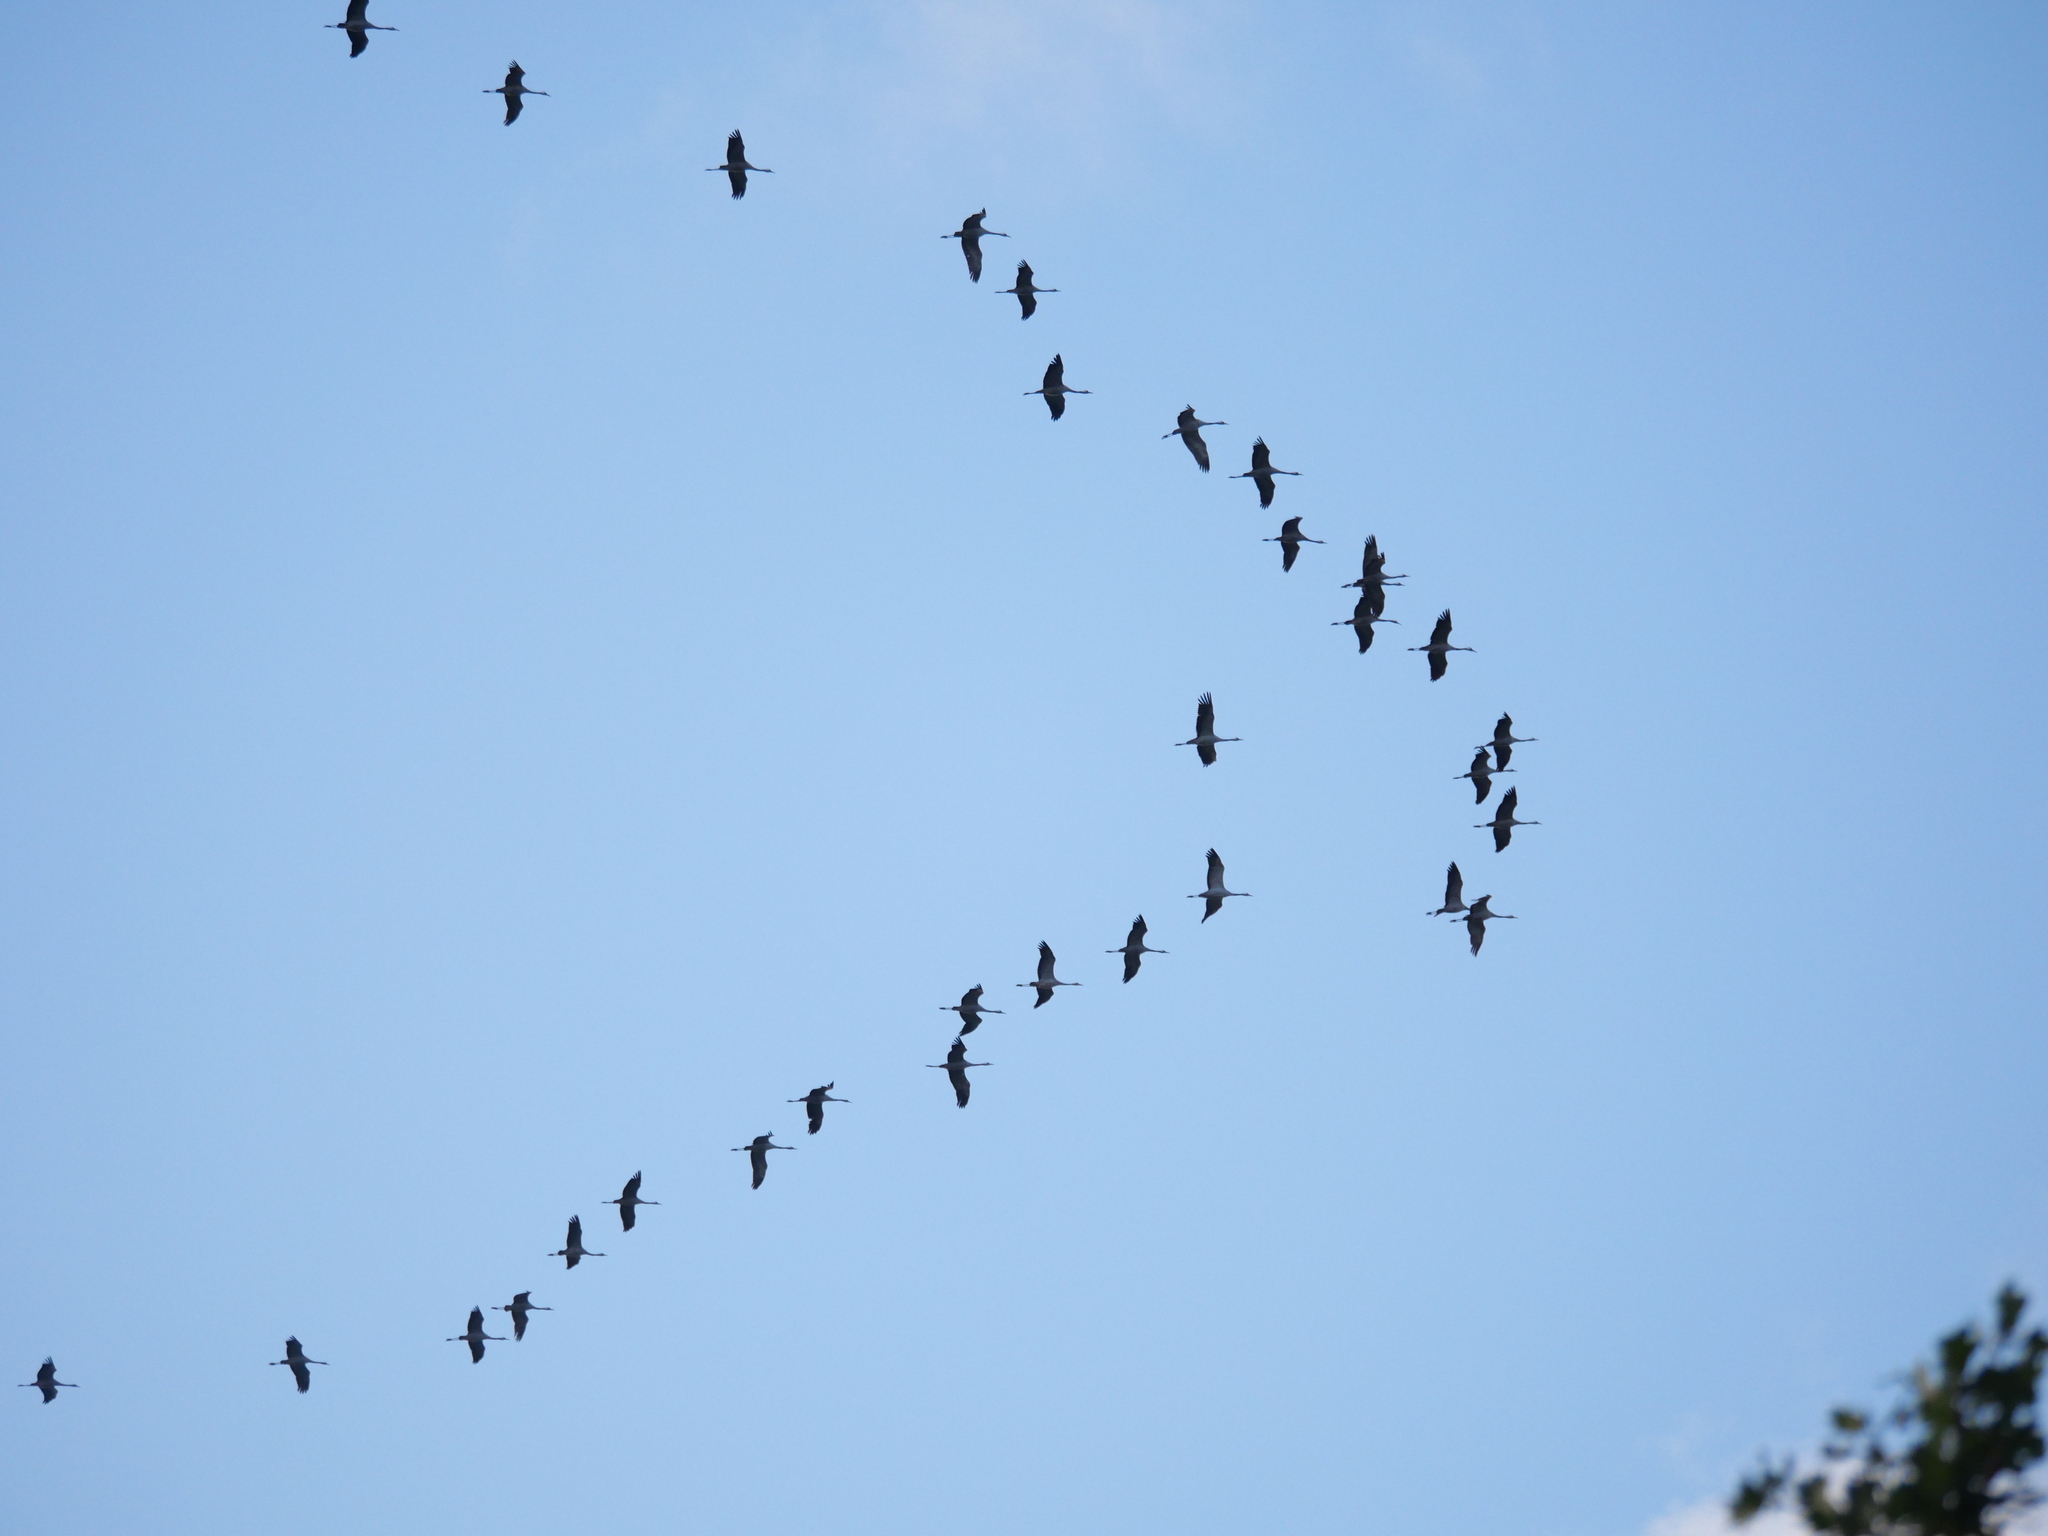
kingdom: Animalia
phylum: Chordata
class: Aves
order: Gruiformes
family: Gruidae
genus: Grus
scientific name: Grus grus
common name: Common crane
